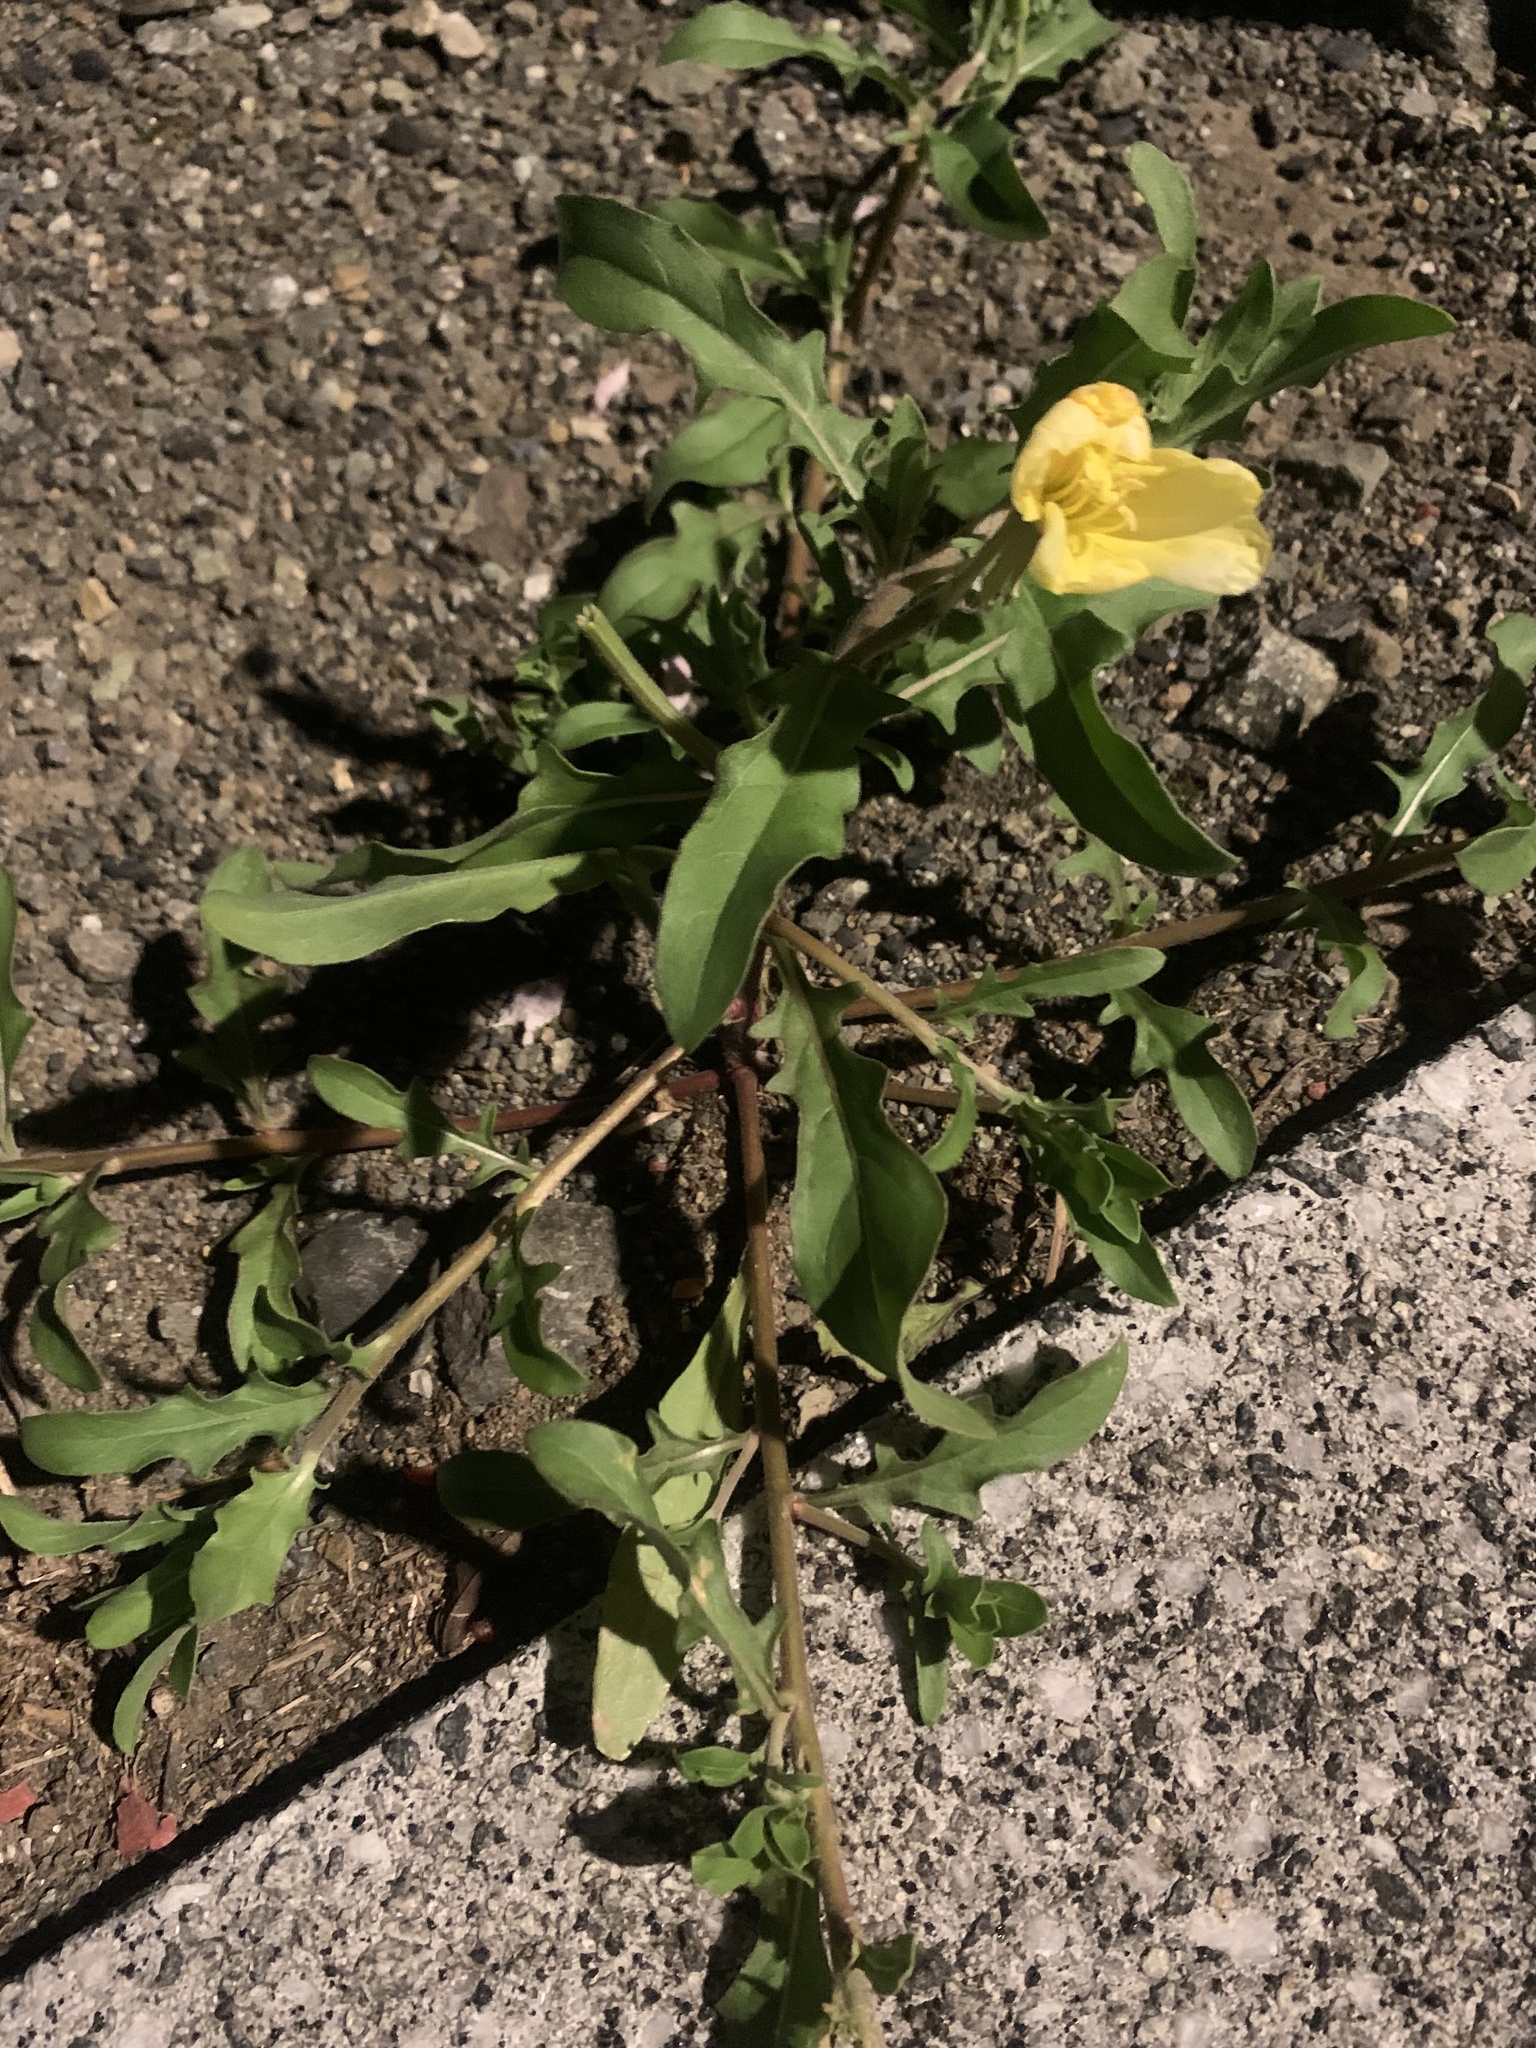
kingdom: Plantae
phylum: Tracheophyta
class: Magnoliopsida
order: Myrtales
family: Onagraceae
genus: Oenothera
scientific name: Oenothera laciniata
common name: Cut-leaved evening-primrose
